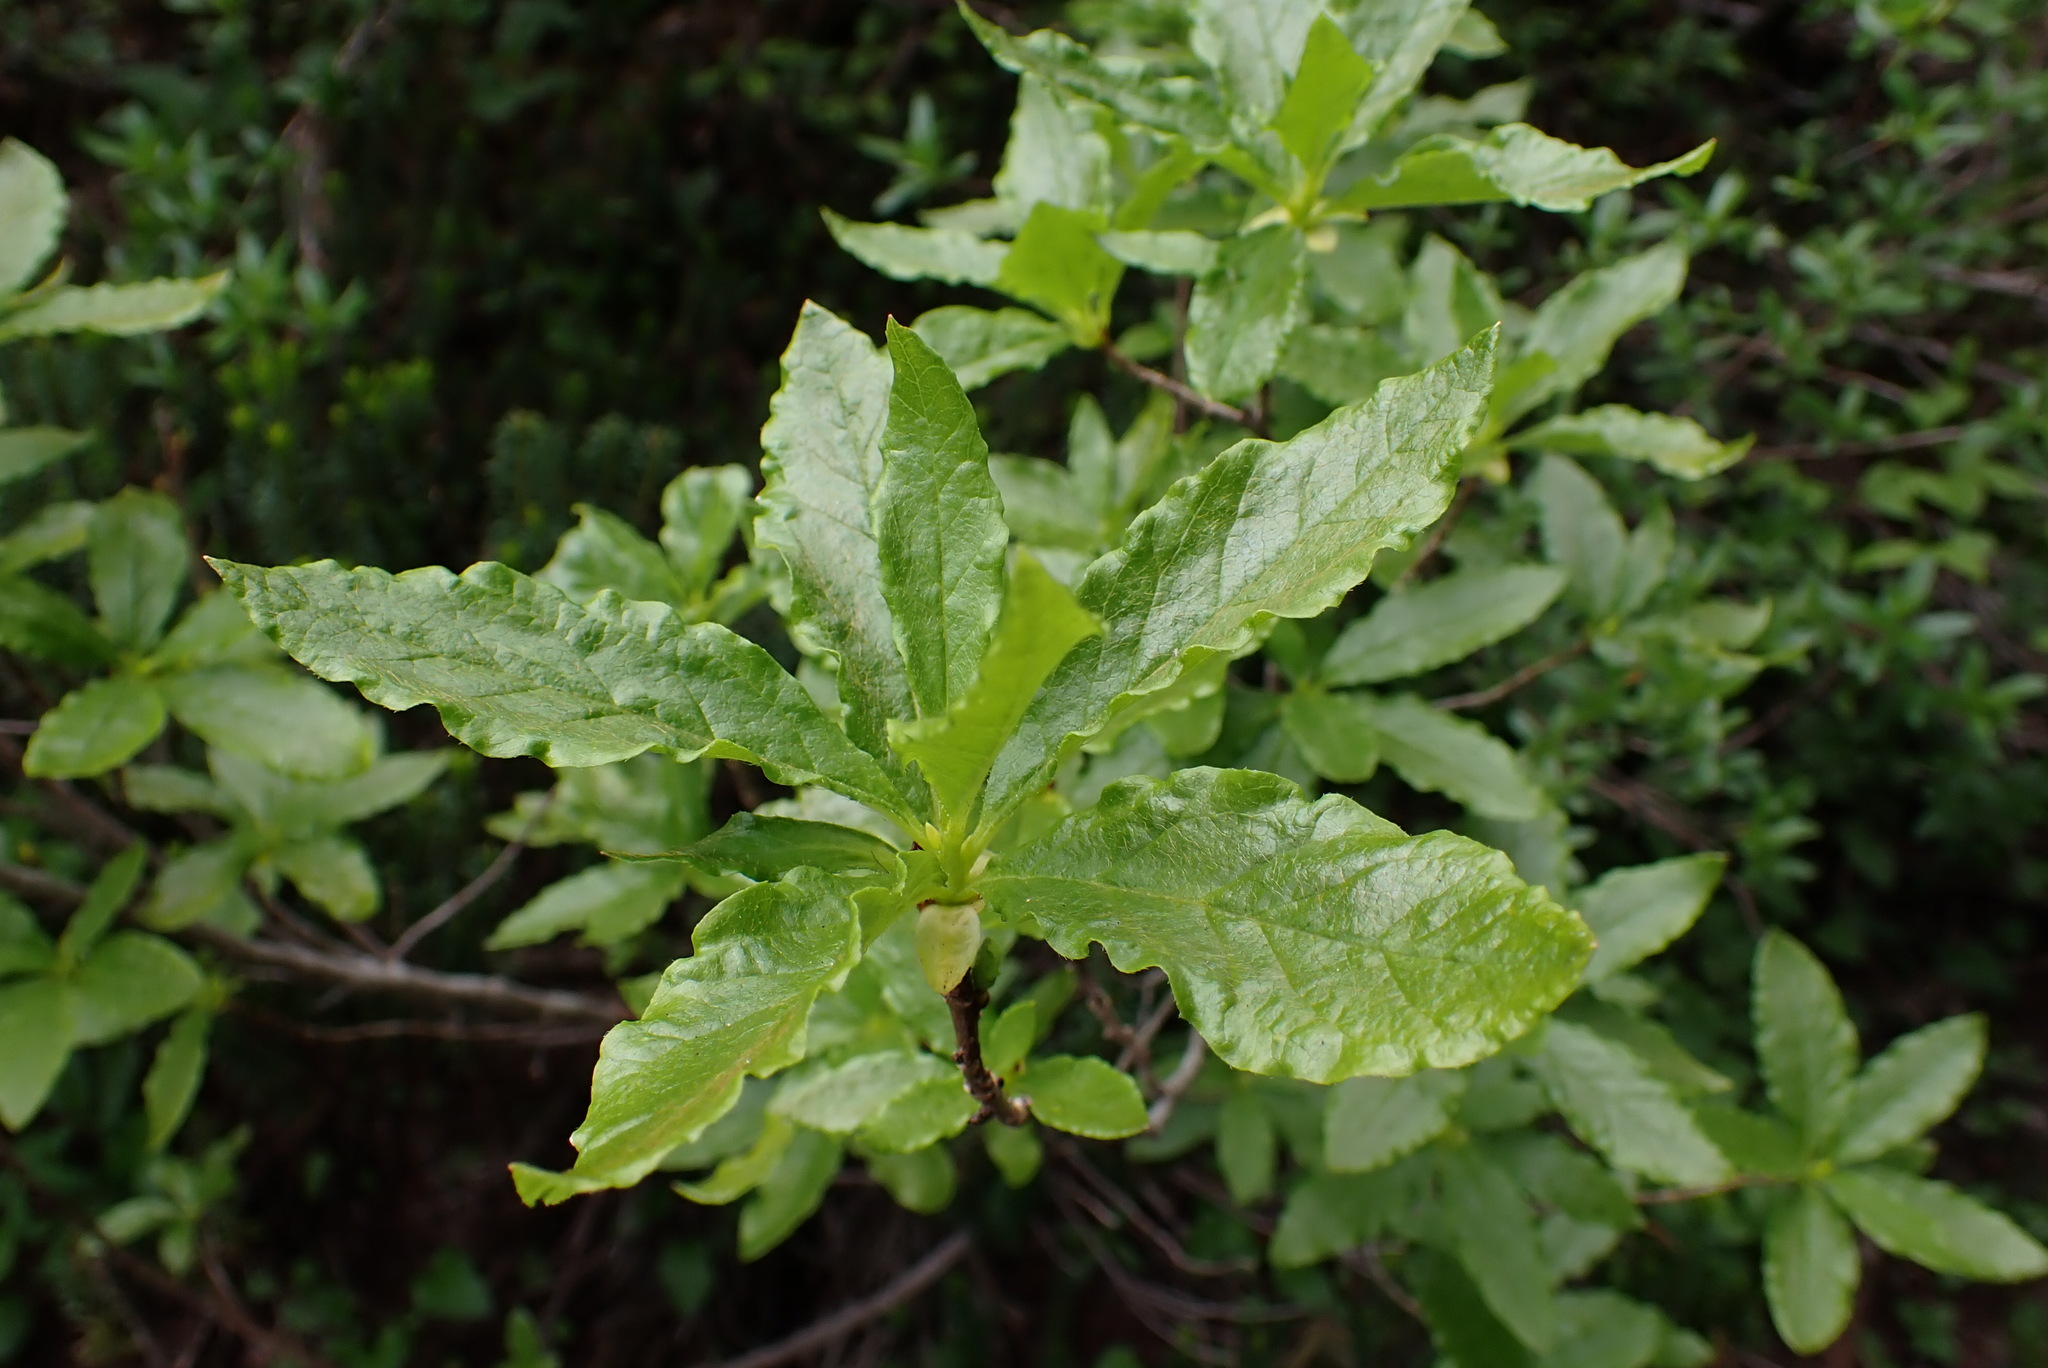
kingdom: Plantae
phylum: Tracheophyta
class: Magnoliopsida
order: Ericales
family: Ericaceae
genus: Rhododendron
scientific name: Rhododendron albiflorum
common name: White rhododendron
